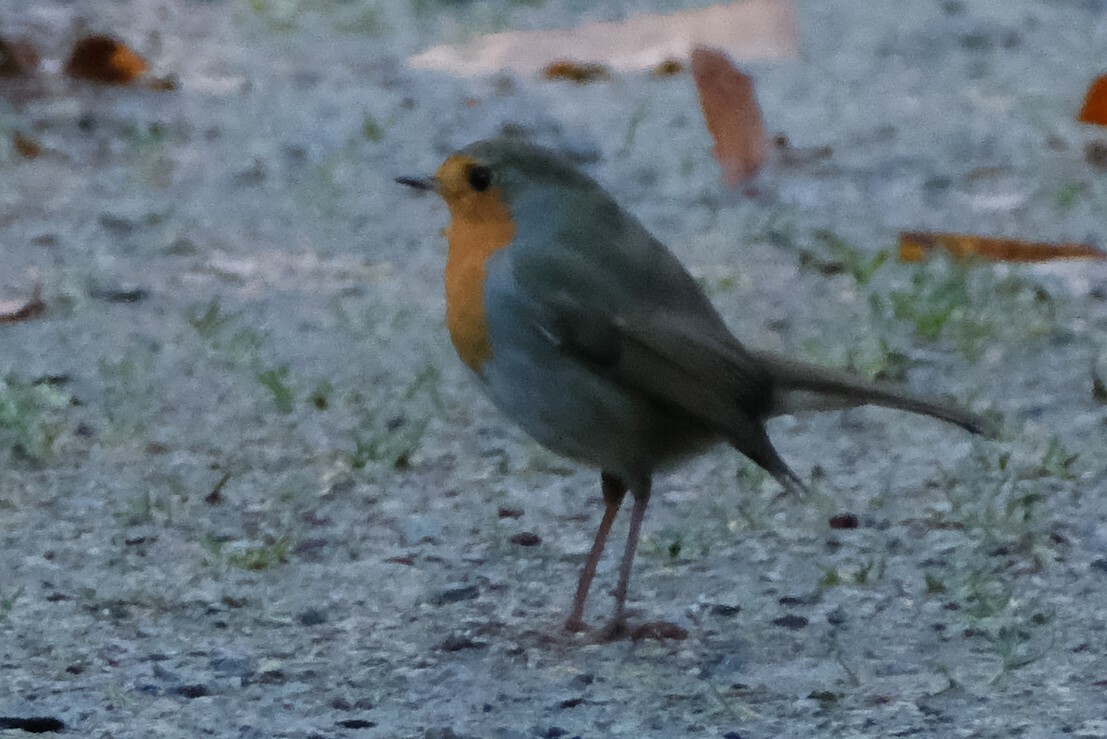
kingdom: Animalia
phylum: Chordata
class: Aves
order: Passeriformes
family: Muscicapidae
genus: Erithacus
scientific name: Erithacus rubecula
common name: European robin
